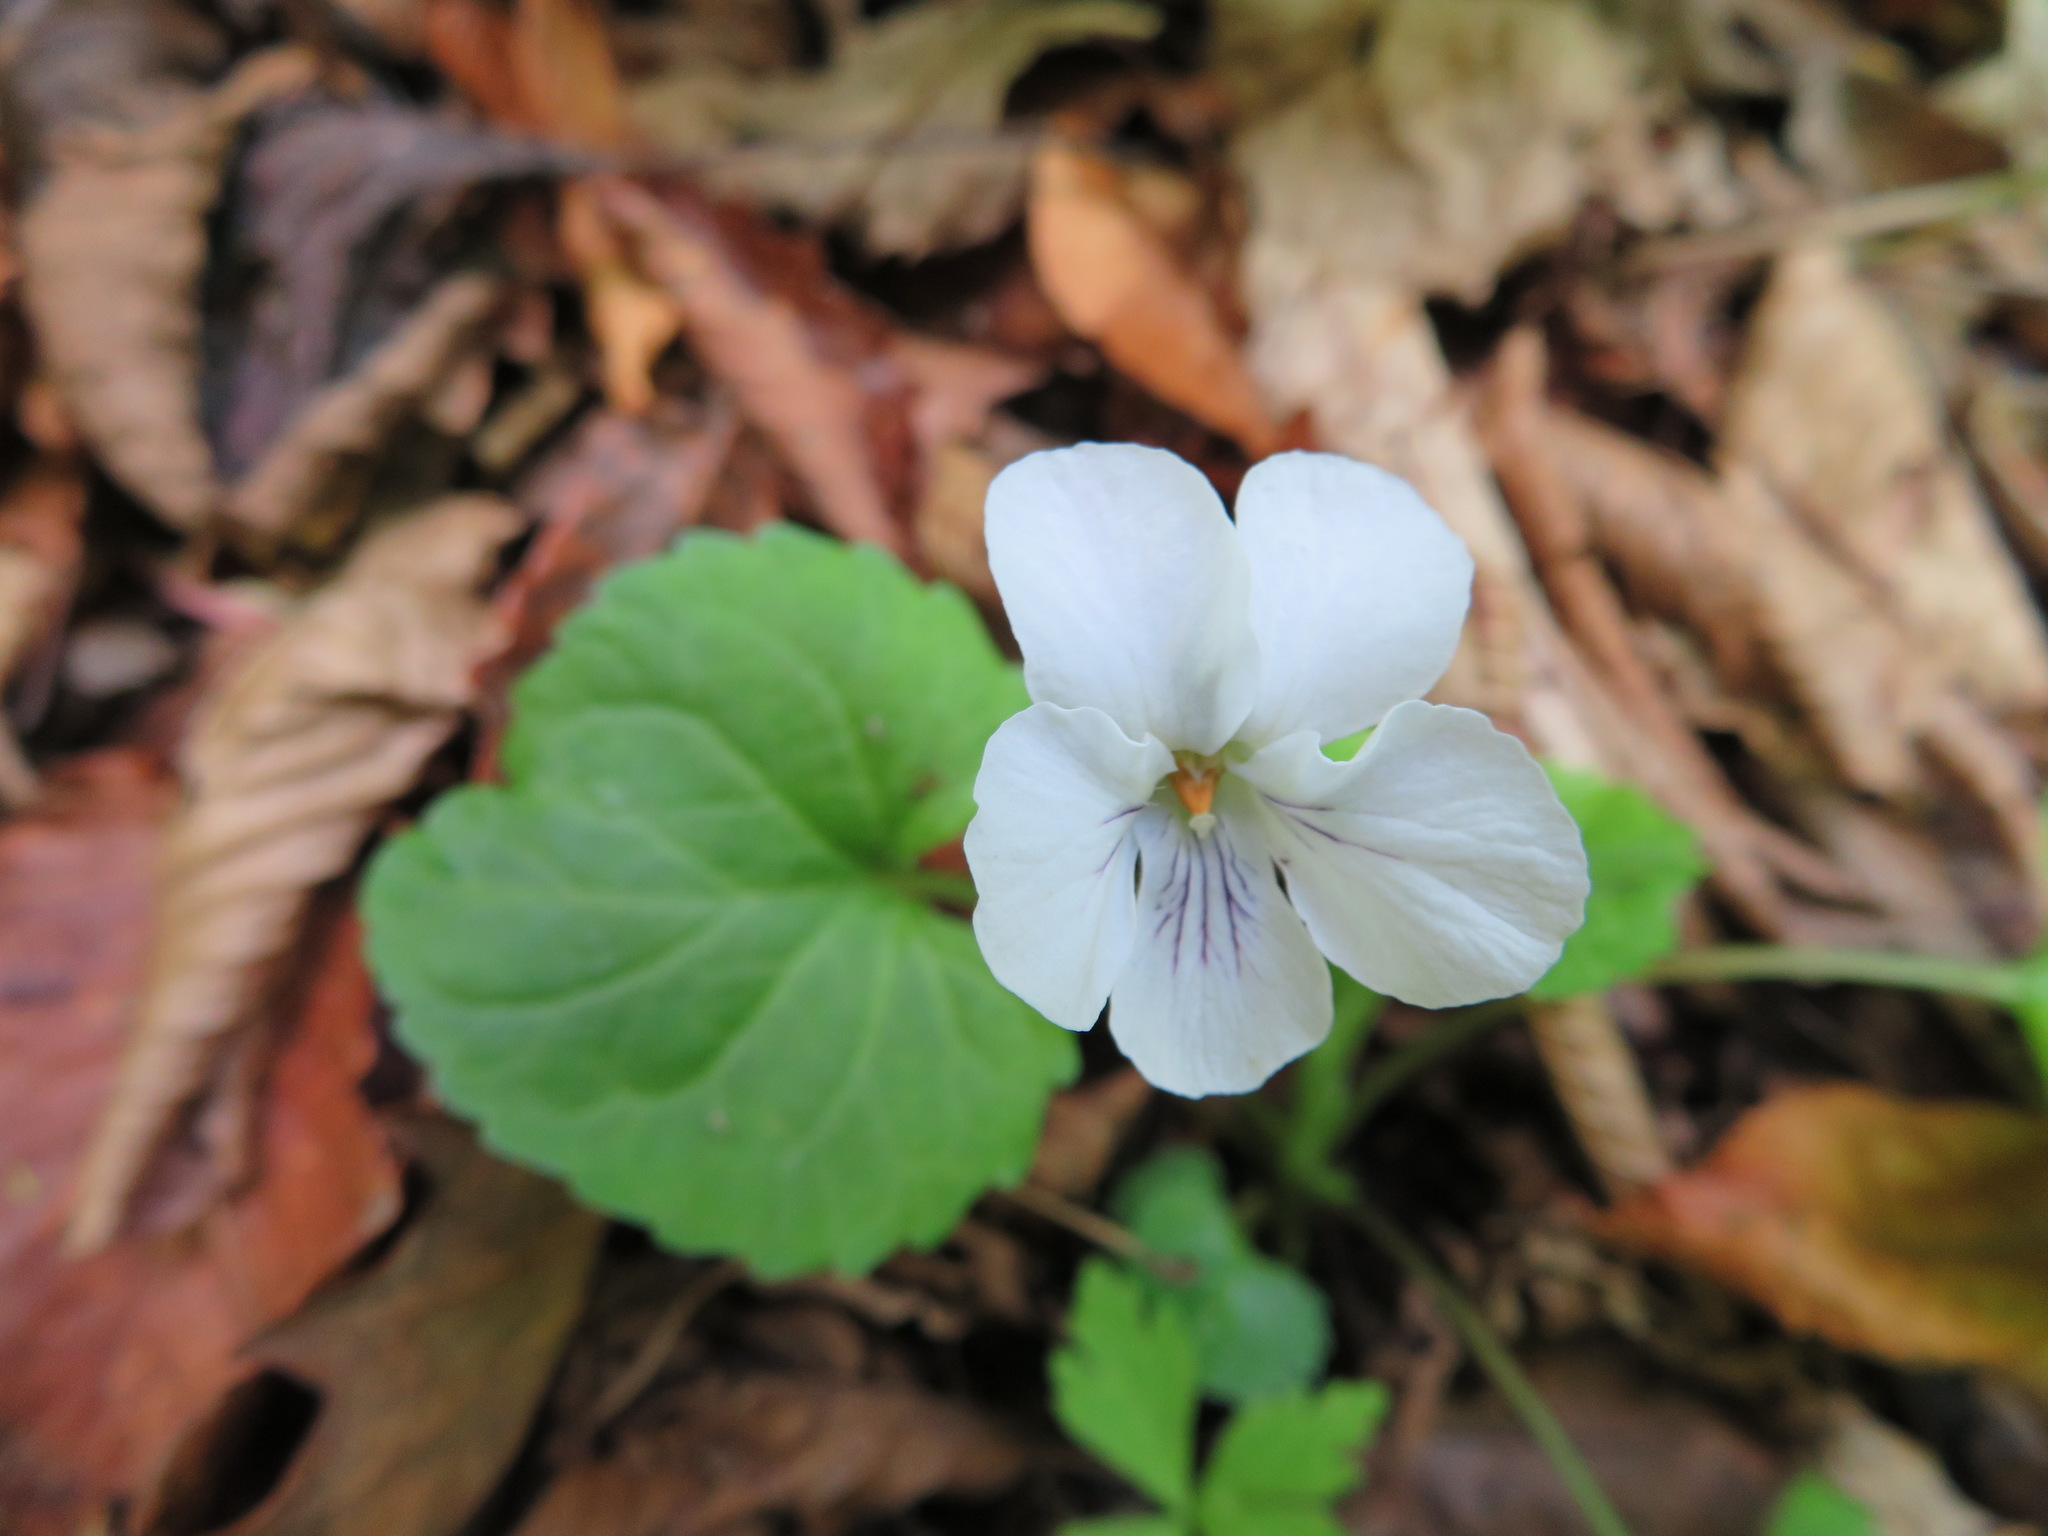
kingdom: Plantae
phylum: Tracheophyta
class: Magnoliopsida
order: Malpighiales
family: Violaceae
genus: Viola
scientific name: Viola keiskei
